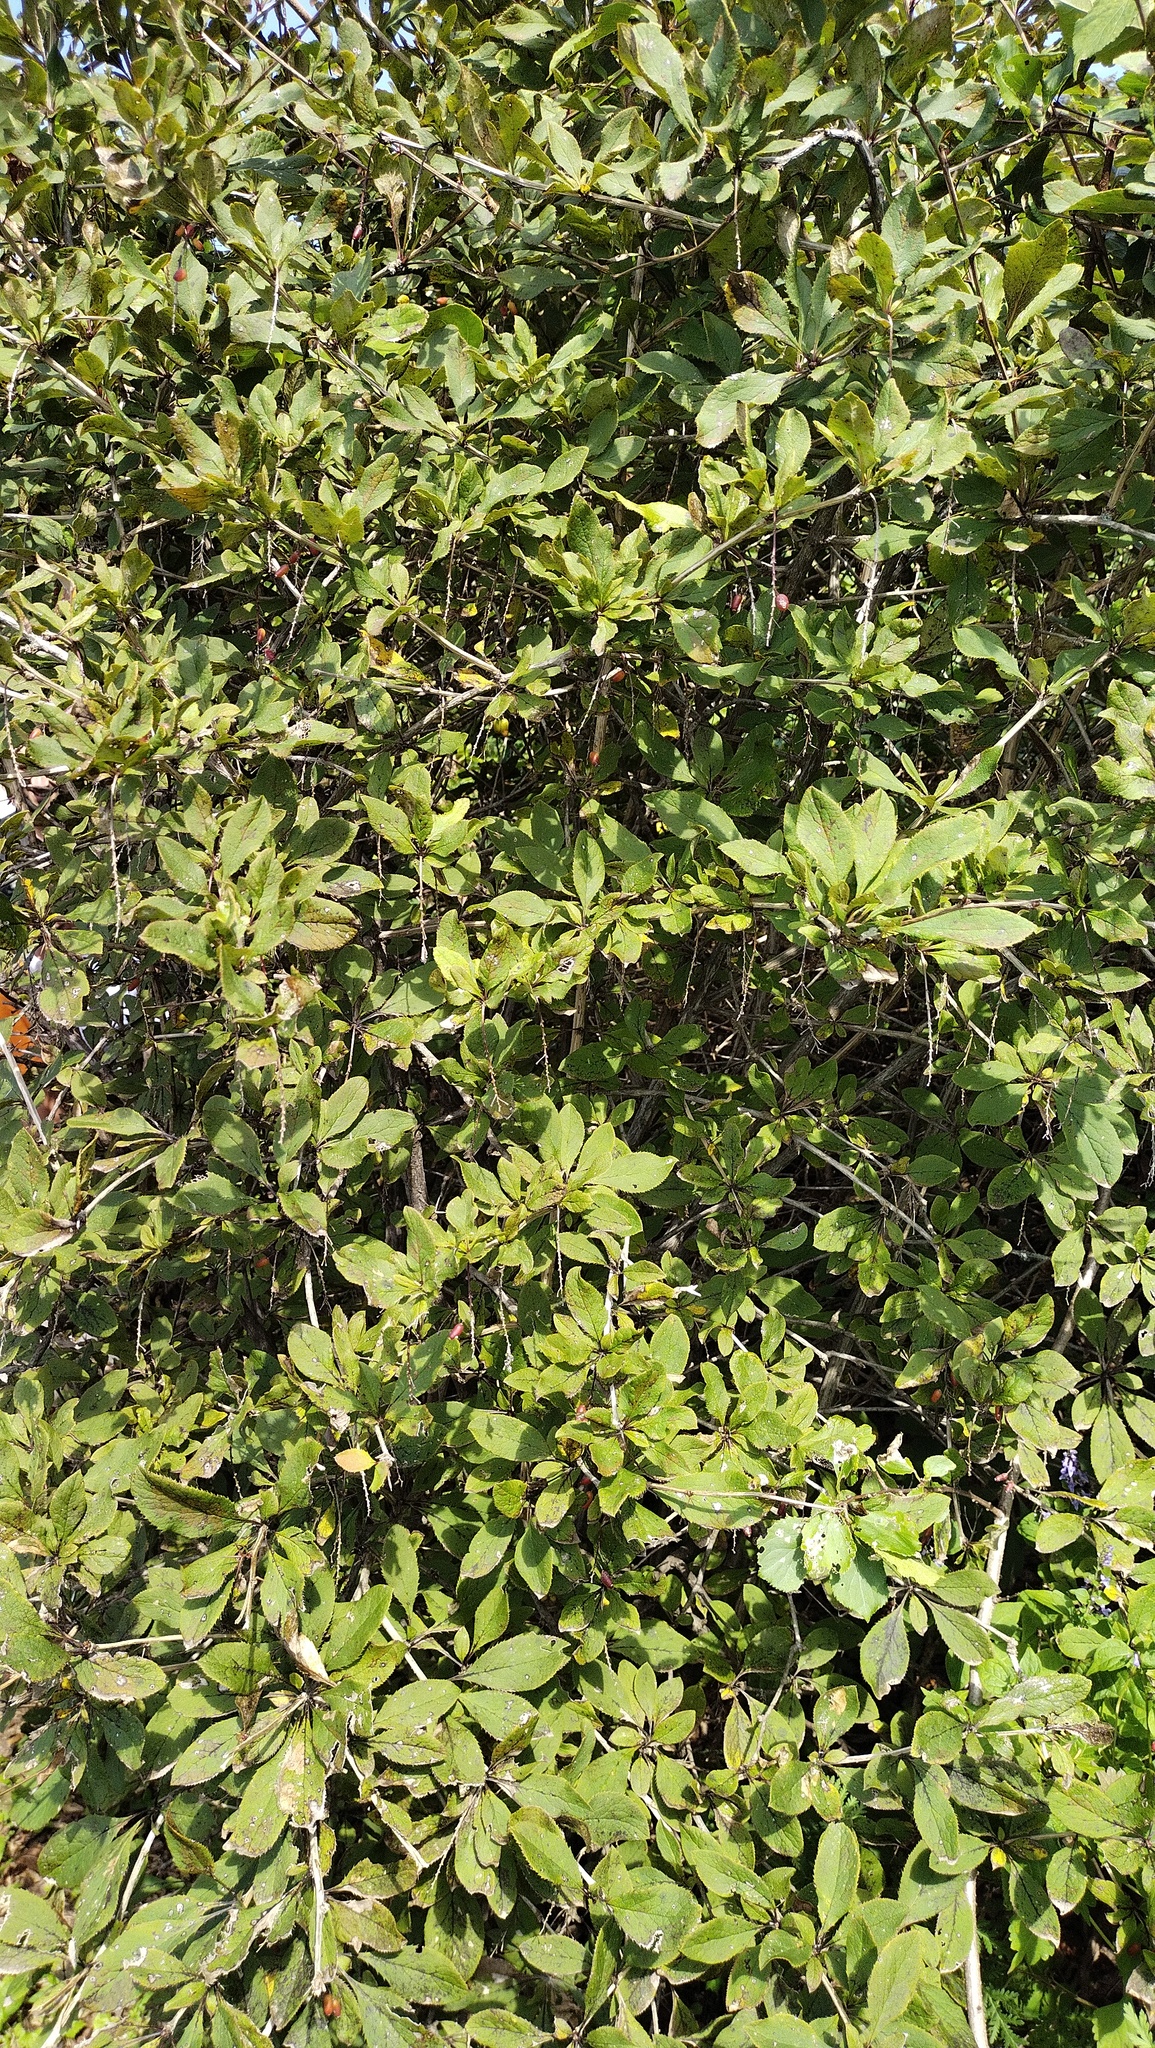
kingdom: Plantae
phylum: Tracheophyta
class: Magnoliopsida
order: Ranunculales
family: Berberidaceae
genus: Berberis
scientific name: Berberis amurensis
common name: Amur barberry
